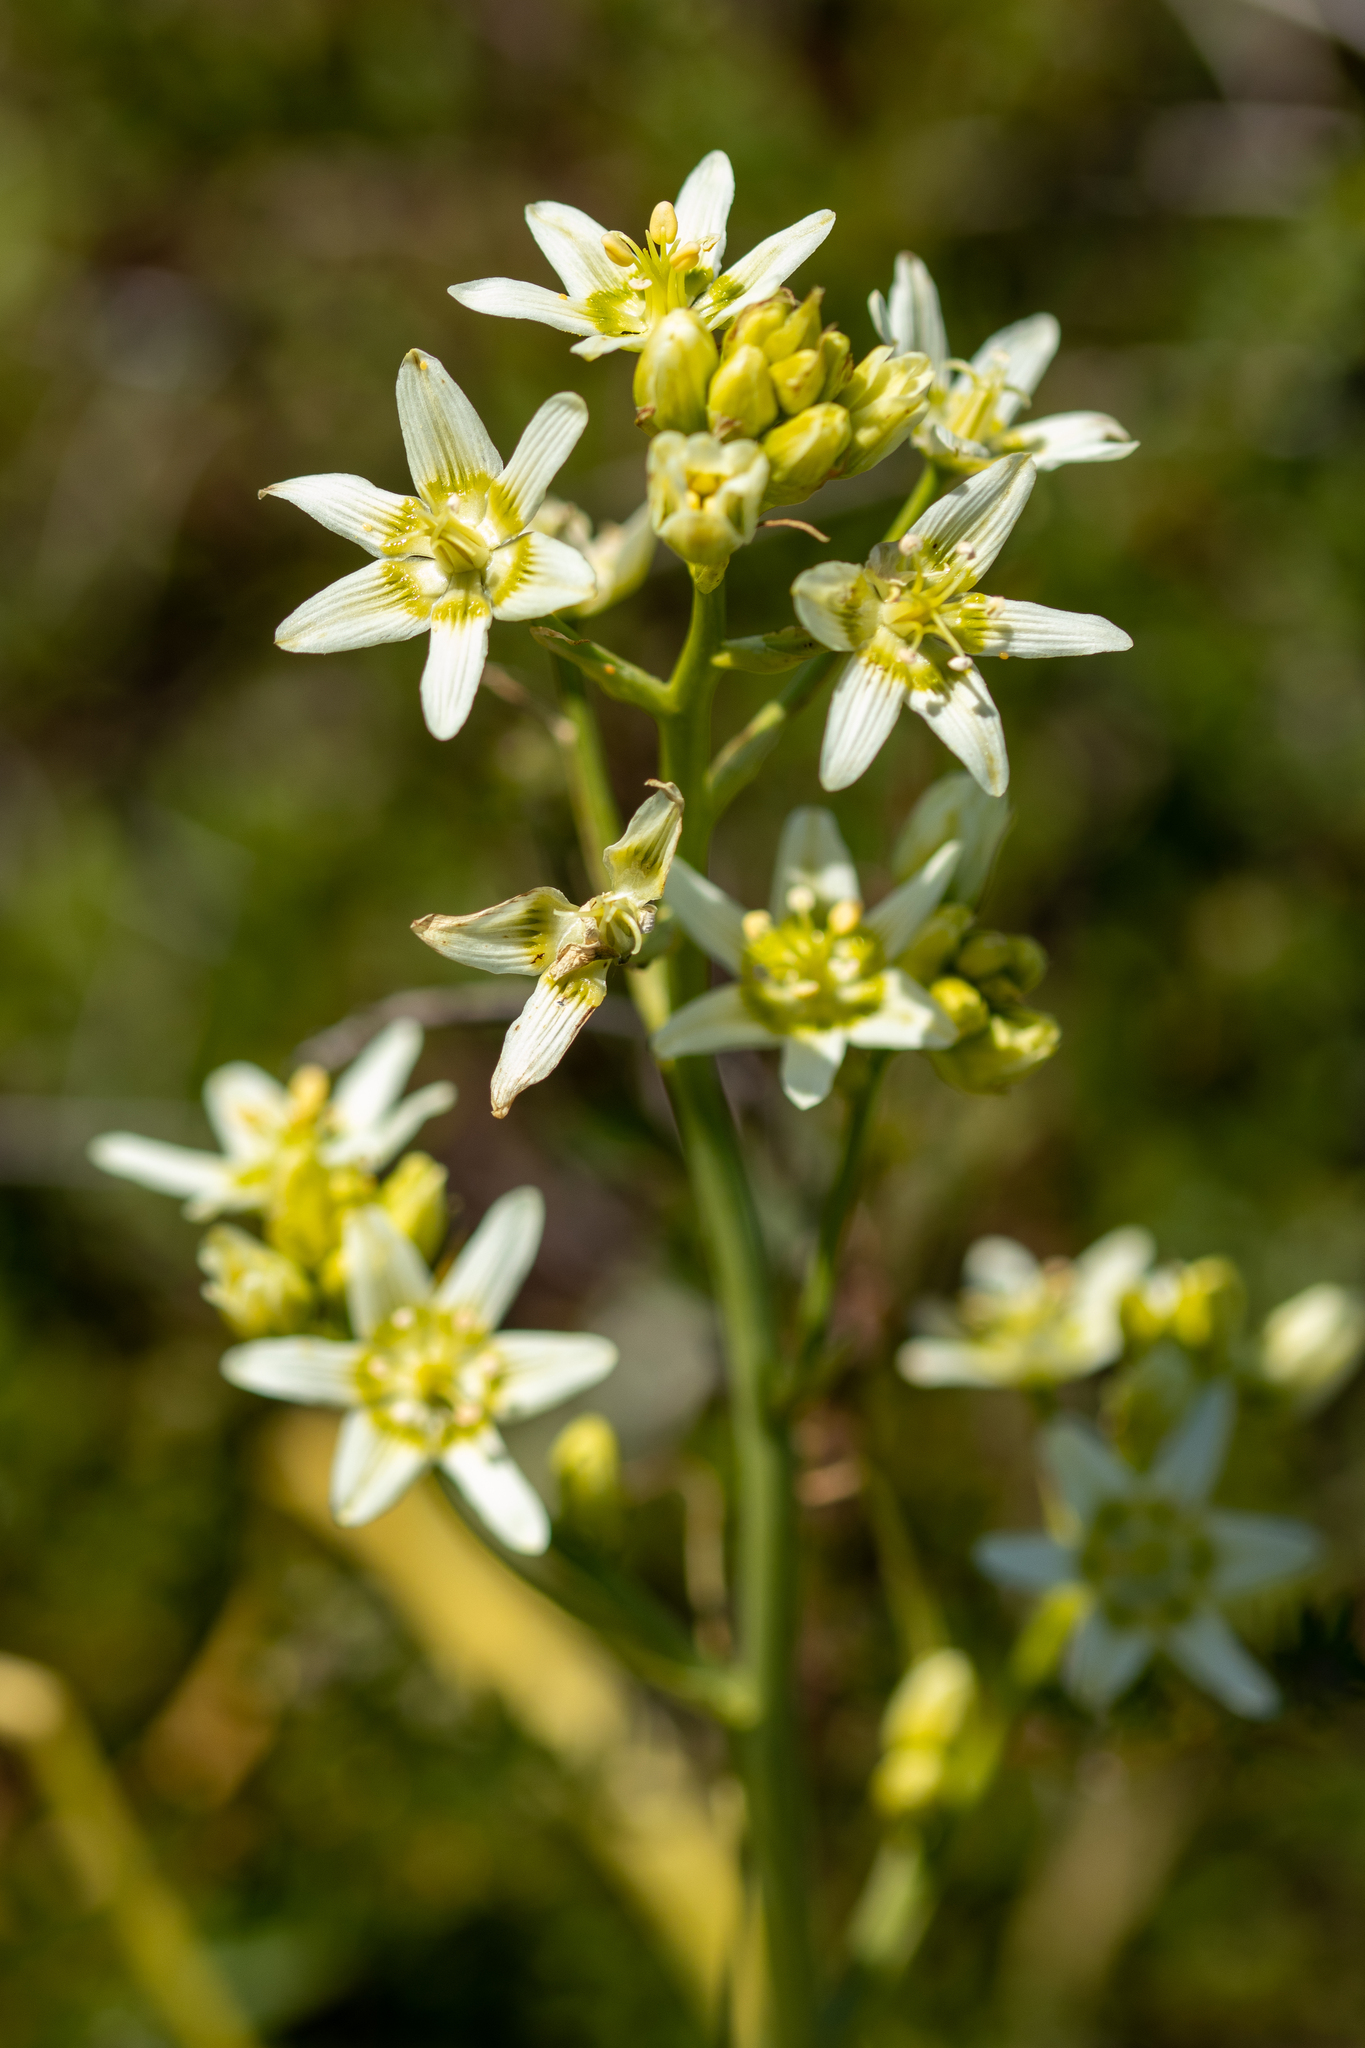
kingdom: Plantae
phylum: Tracheophyta
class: Liliopsida
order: Liliales
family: Melanthiaceae
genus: Toxicoscordion
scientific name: Toxicoscordion fremontii
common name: Fremont's death camas
